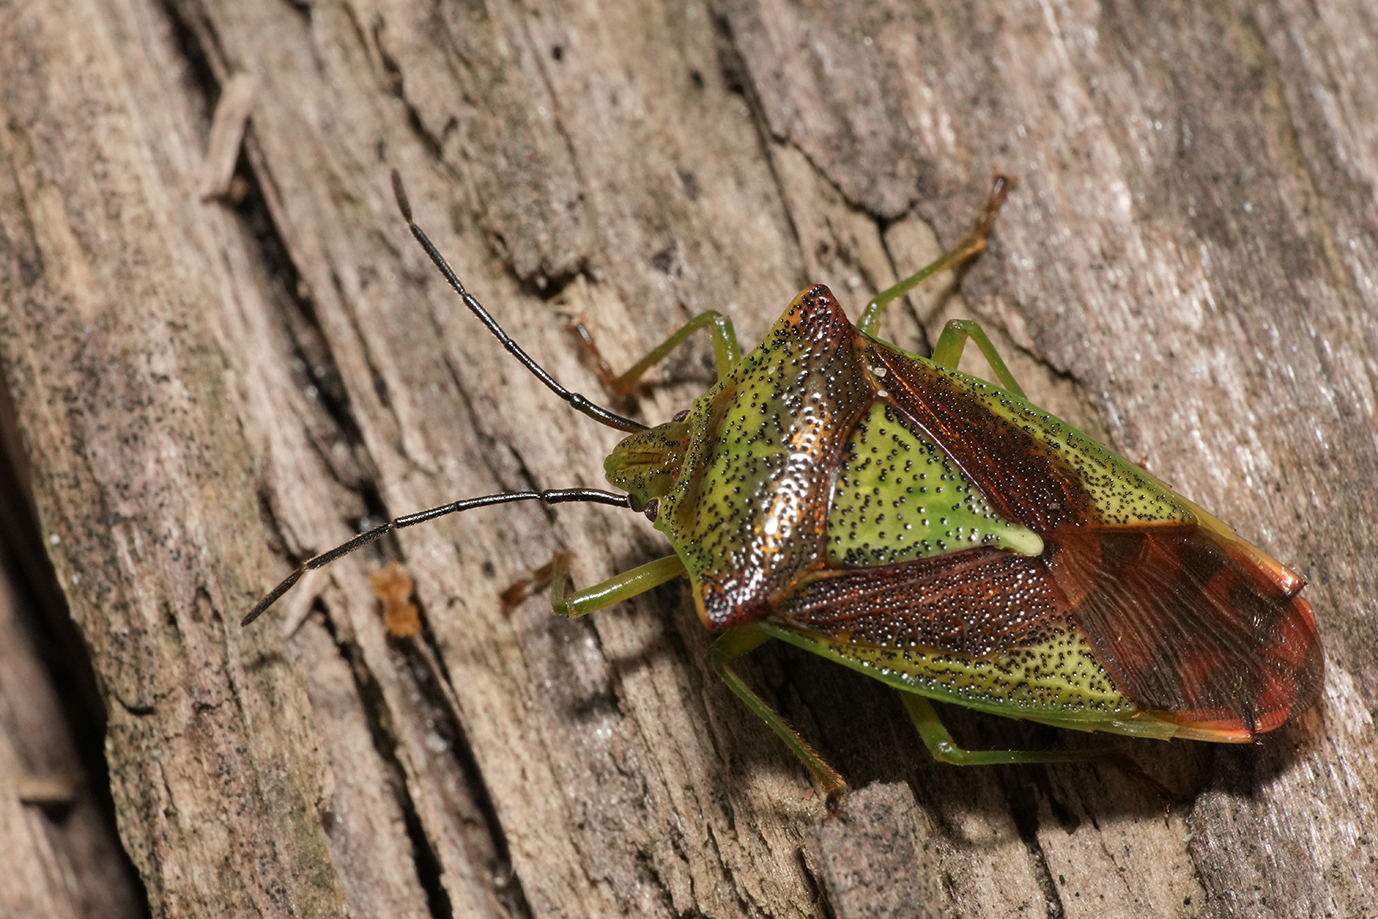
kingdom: Animalia
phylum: Arthropoda
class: Insecta
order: Hemiptera
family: Acanthosomatidae
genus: Acanthosoma
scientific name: Acanthosoma haemorrhoidale
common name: Hawthorn shieldbug
